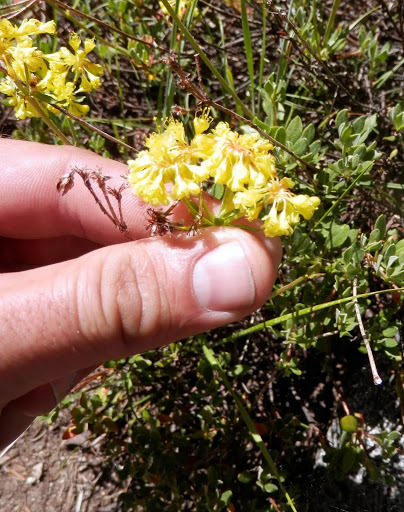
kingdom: Plantae
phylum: Tracheophyta
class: Magnoliopsida
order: Caryophyllales
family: Polygonaceae
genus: Eriogonum
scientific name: Eriogonum umbellatum
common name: Sulfur-buckwheat
